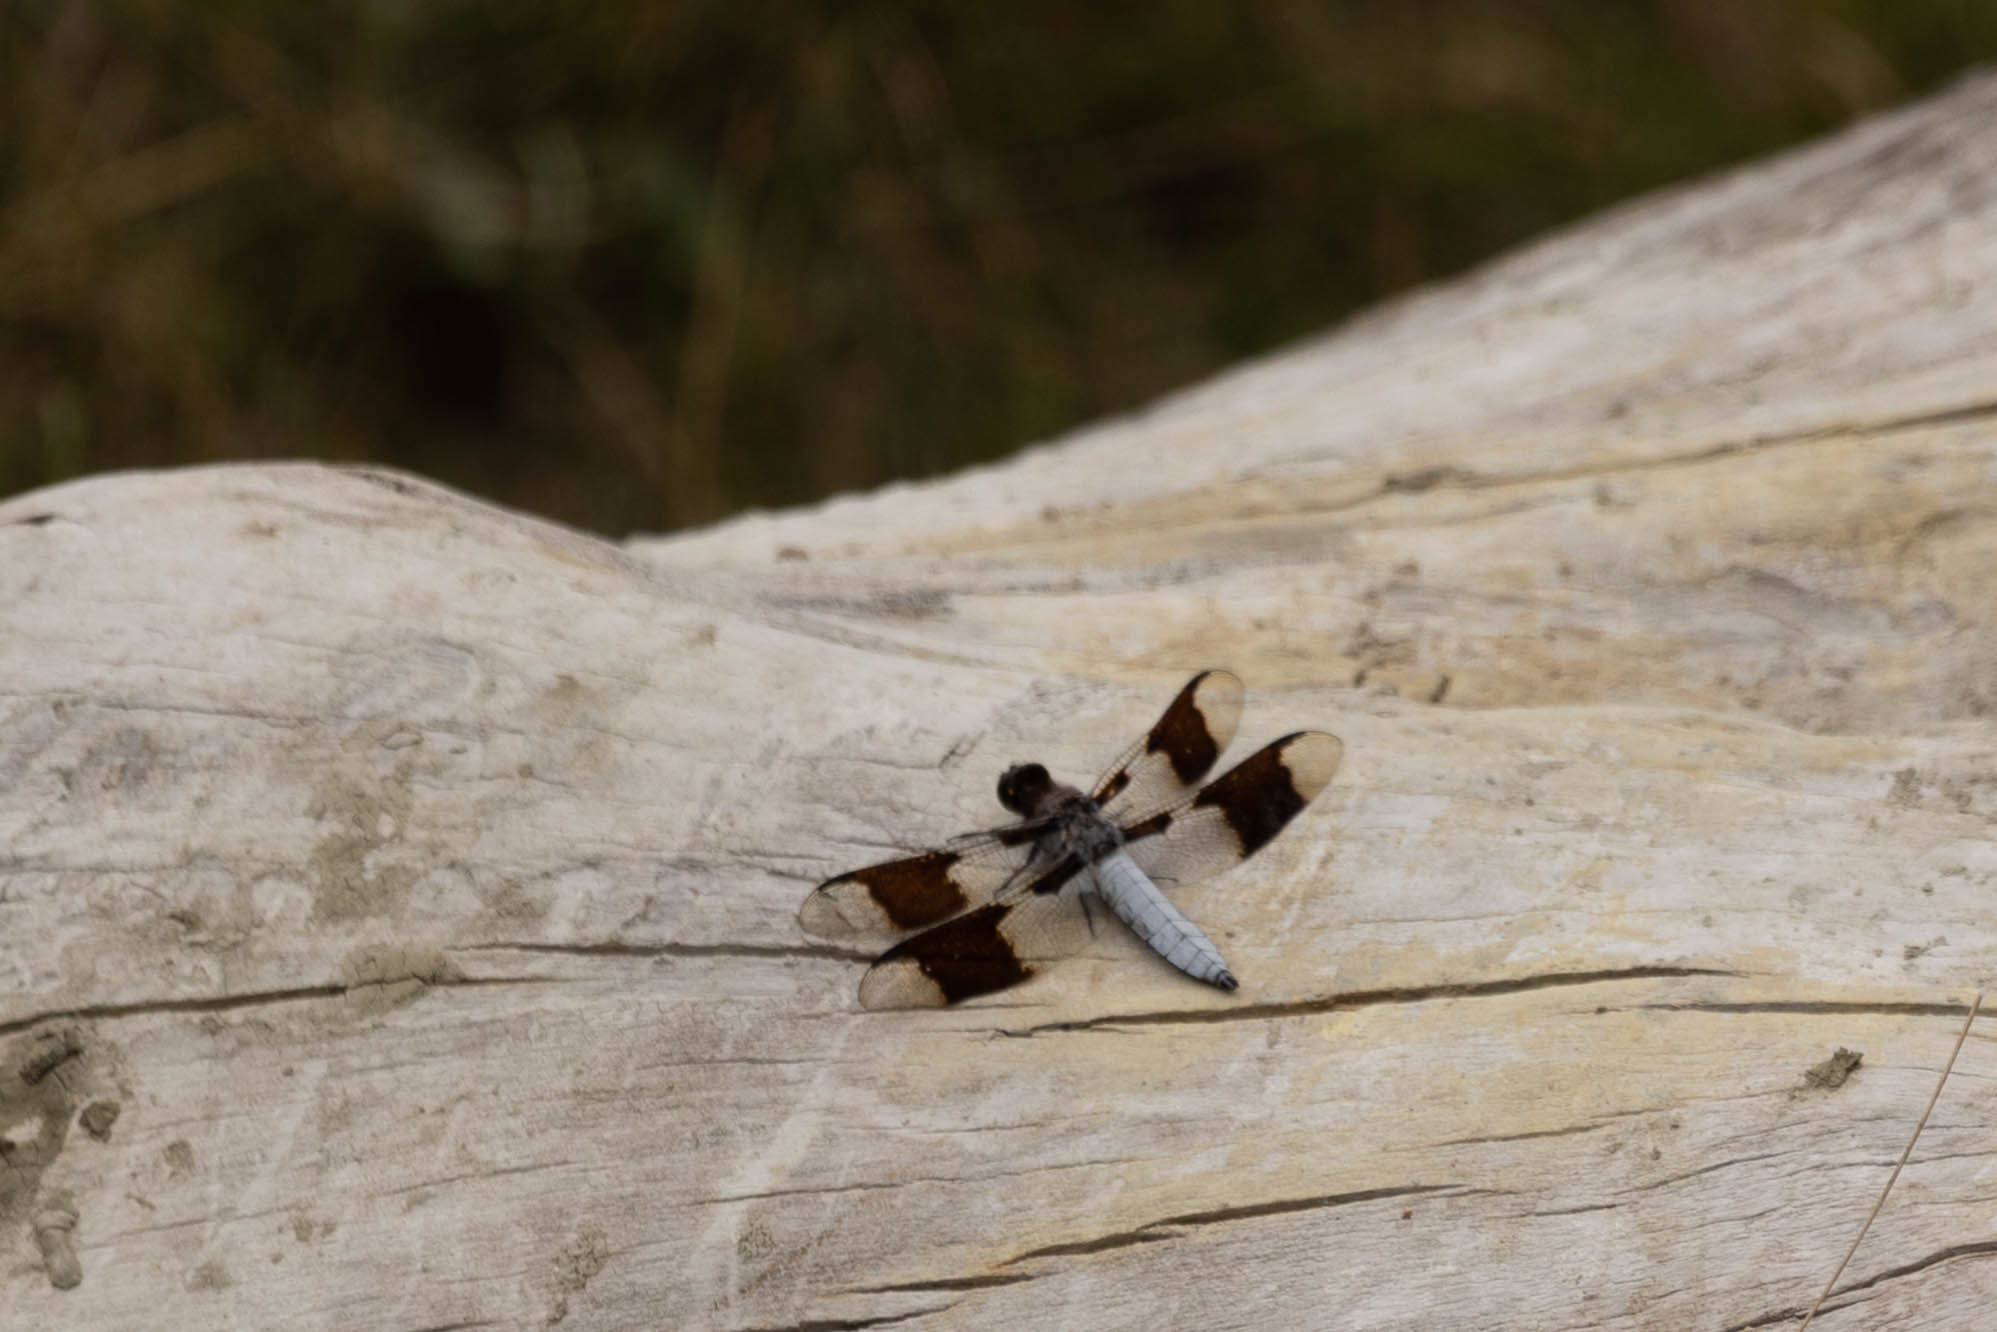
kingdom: Animalia
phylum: Arthropoda
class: Insecta
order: Odonata
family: Libellulidae
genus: Plathemis
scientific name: Plathemis lydia
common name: Common whitetail
